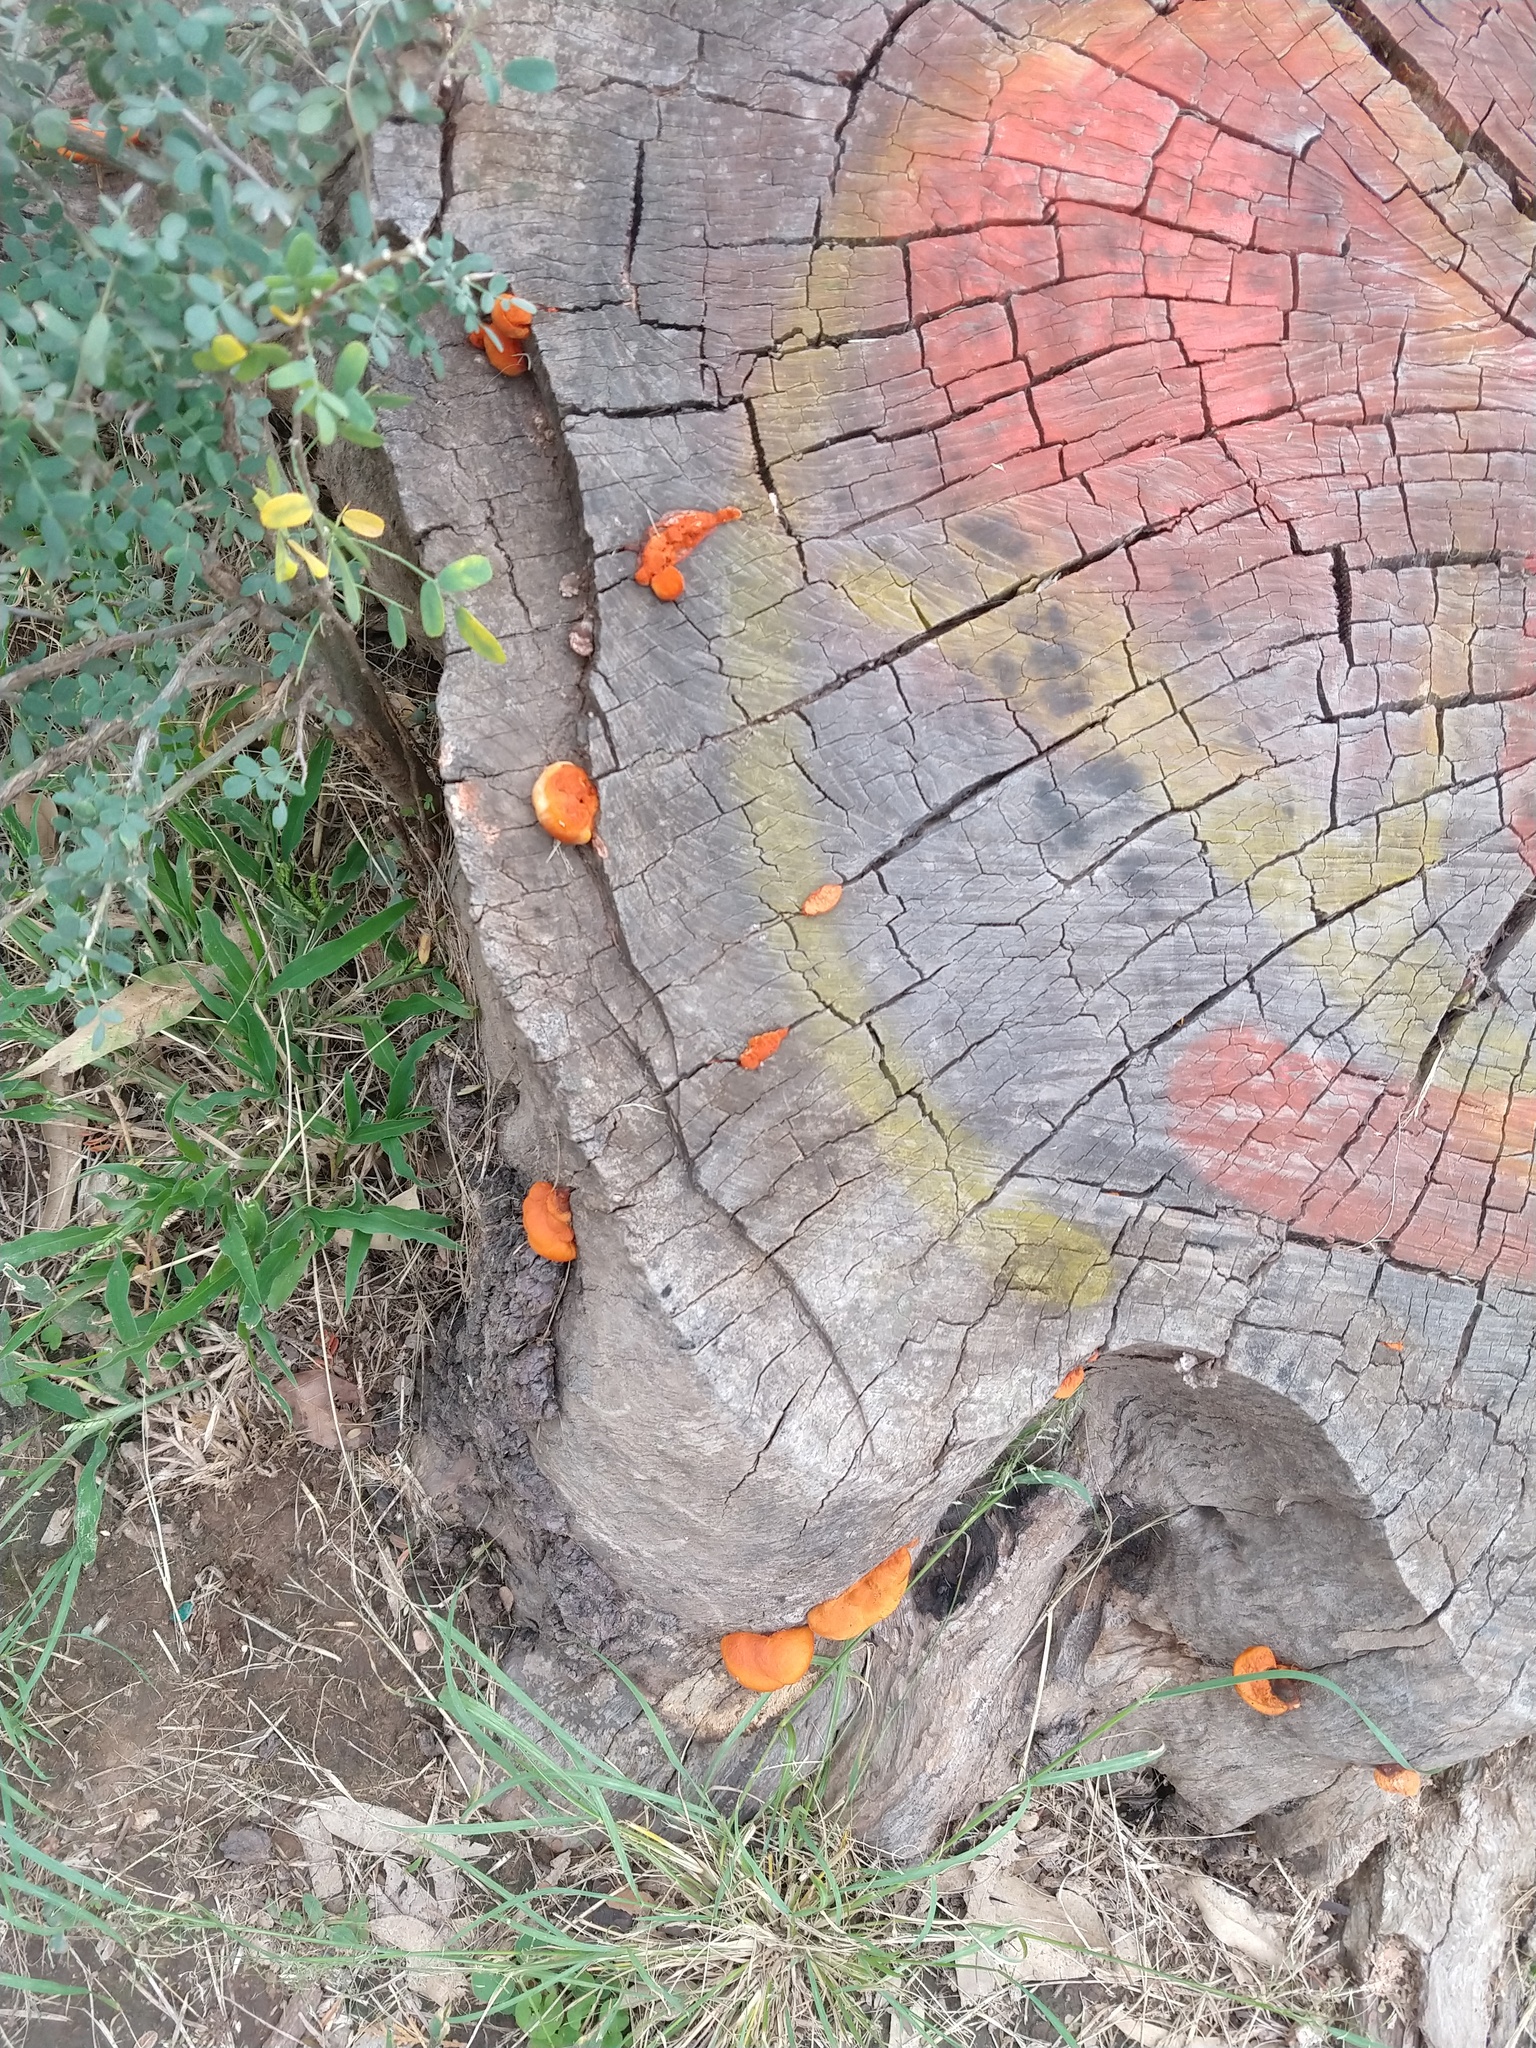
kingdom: Fungi
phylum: Basidiomycota
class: Agaricomycetes
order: Polyporales
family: Polyporaceae
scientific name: Polyporaceae
